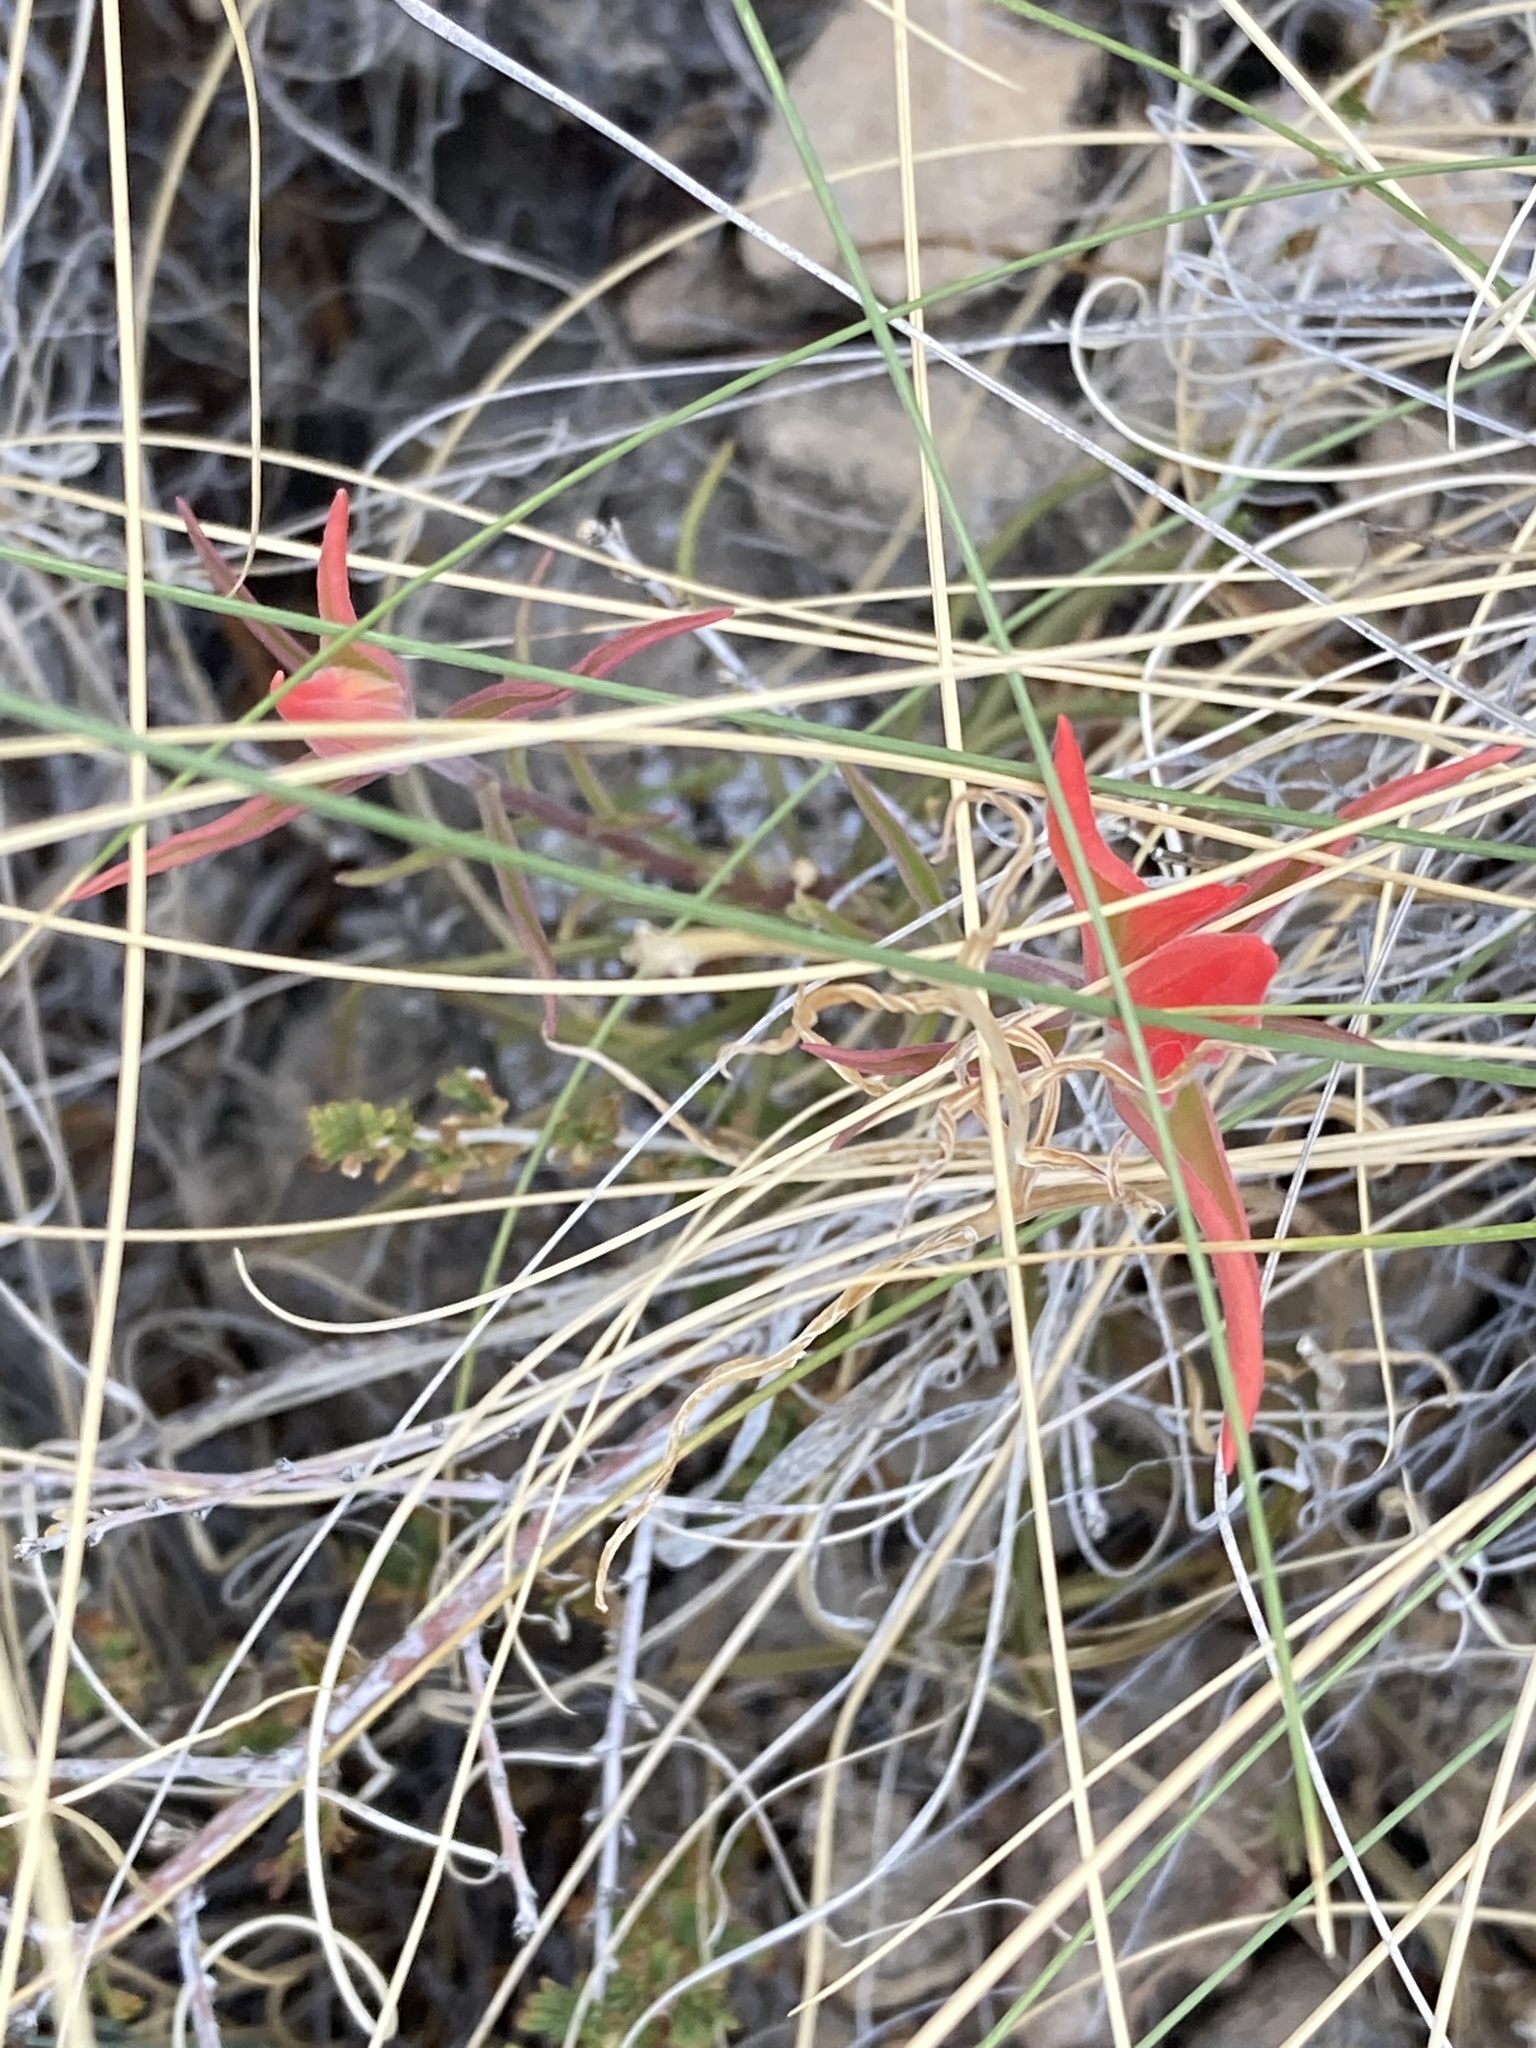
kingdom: Plantae
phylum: Tracheophyta
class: Magnoliopsida
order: Lamiales
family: Orobanchaceae
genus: Castilleja
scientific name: Castilleja integra
